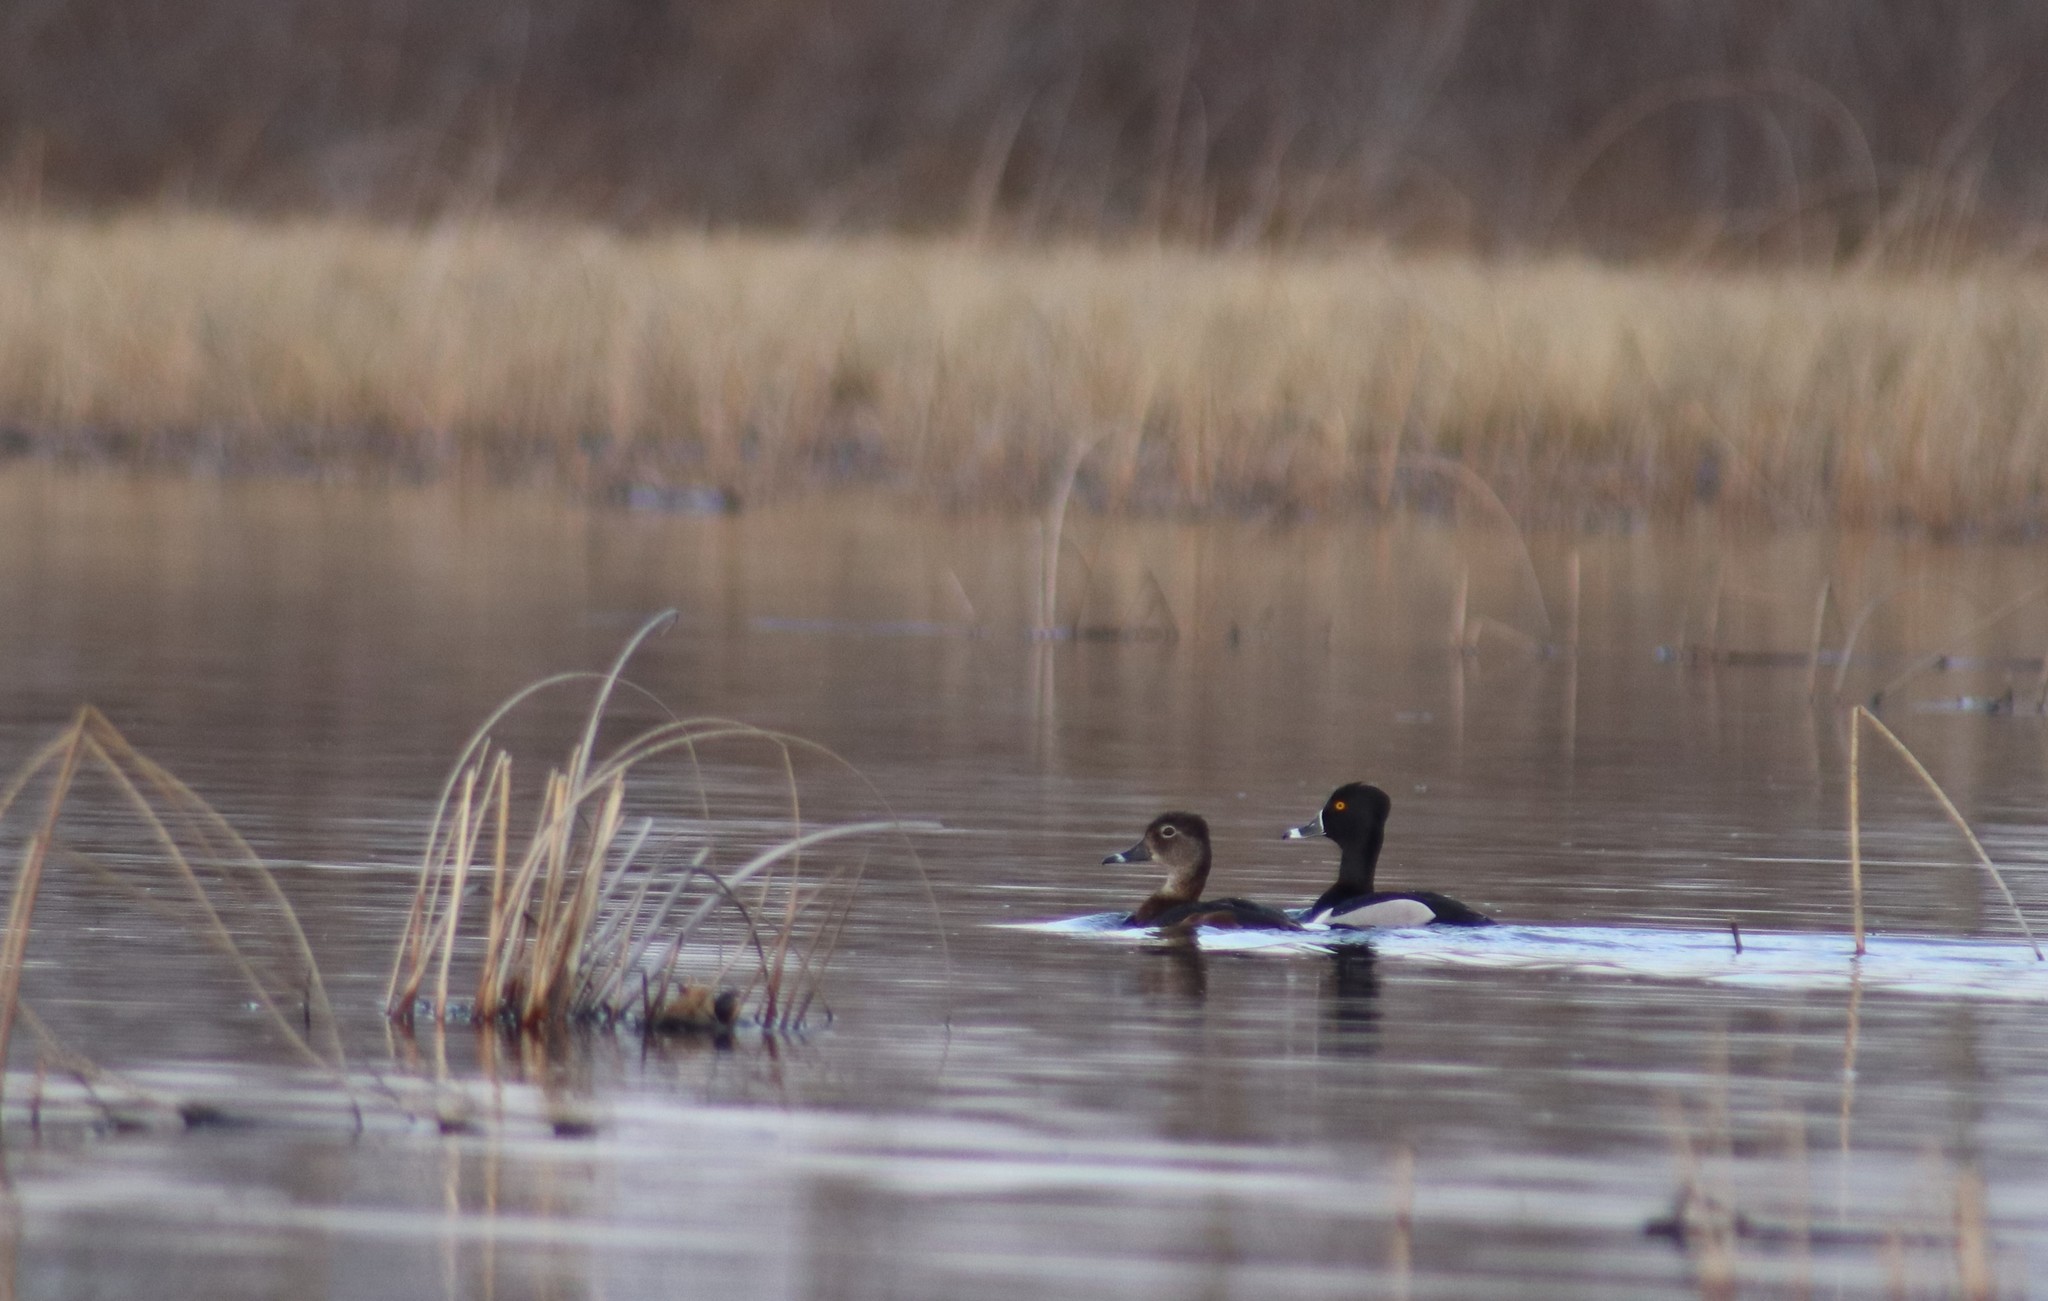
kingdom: Animalia
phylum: Chordata
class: Aves
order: Anseriformes
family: Anatidae
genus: Aythya
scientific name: Aythya collaris
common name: Ring-necked duck
